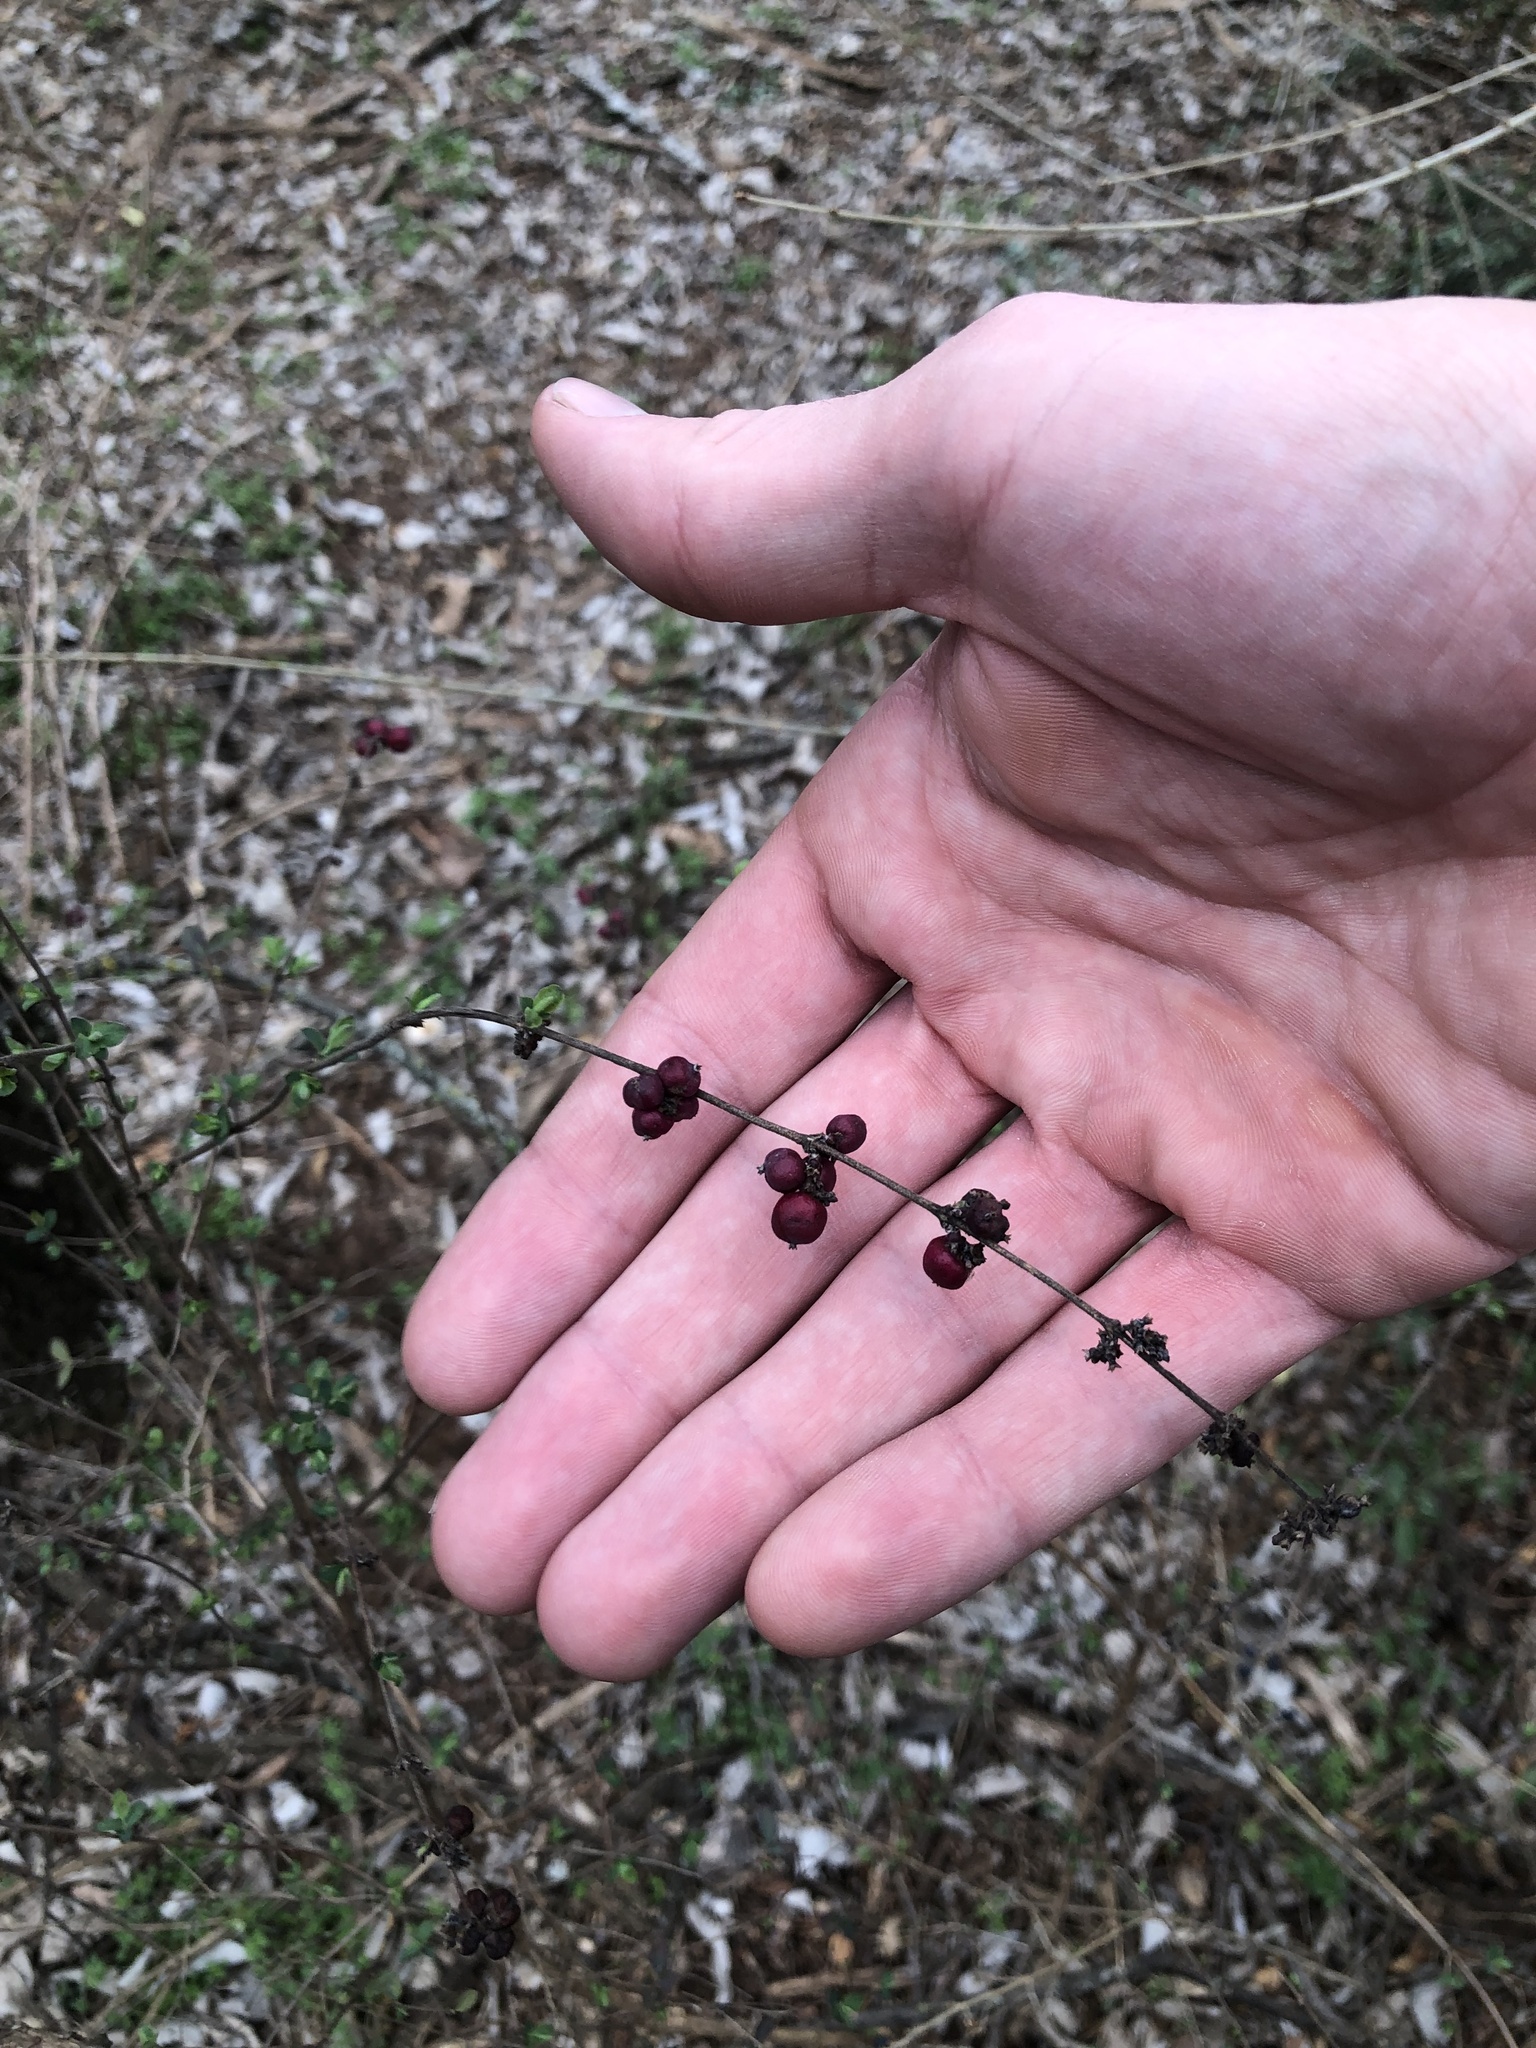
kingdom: Plantae
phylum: Tracheophyta
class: Magnoliopsida
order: Dipsacales
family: Caprifoliaceae
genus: Symphoricarpos
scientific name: Symphoricarpos orbiculatus
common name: Coralberry
